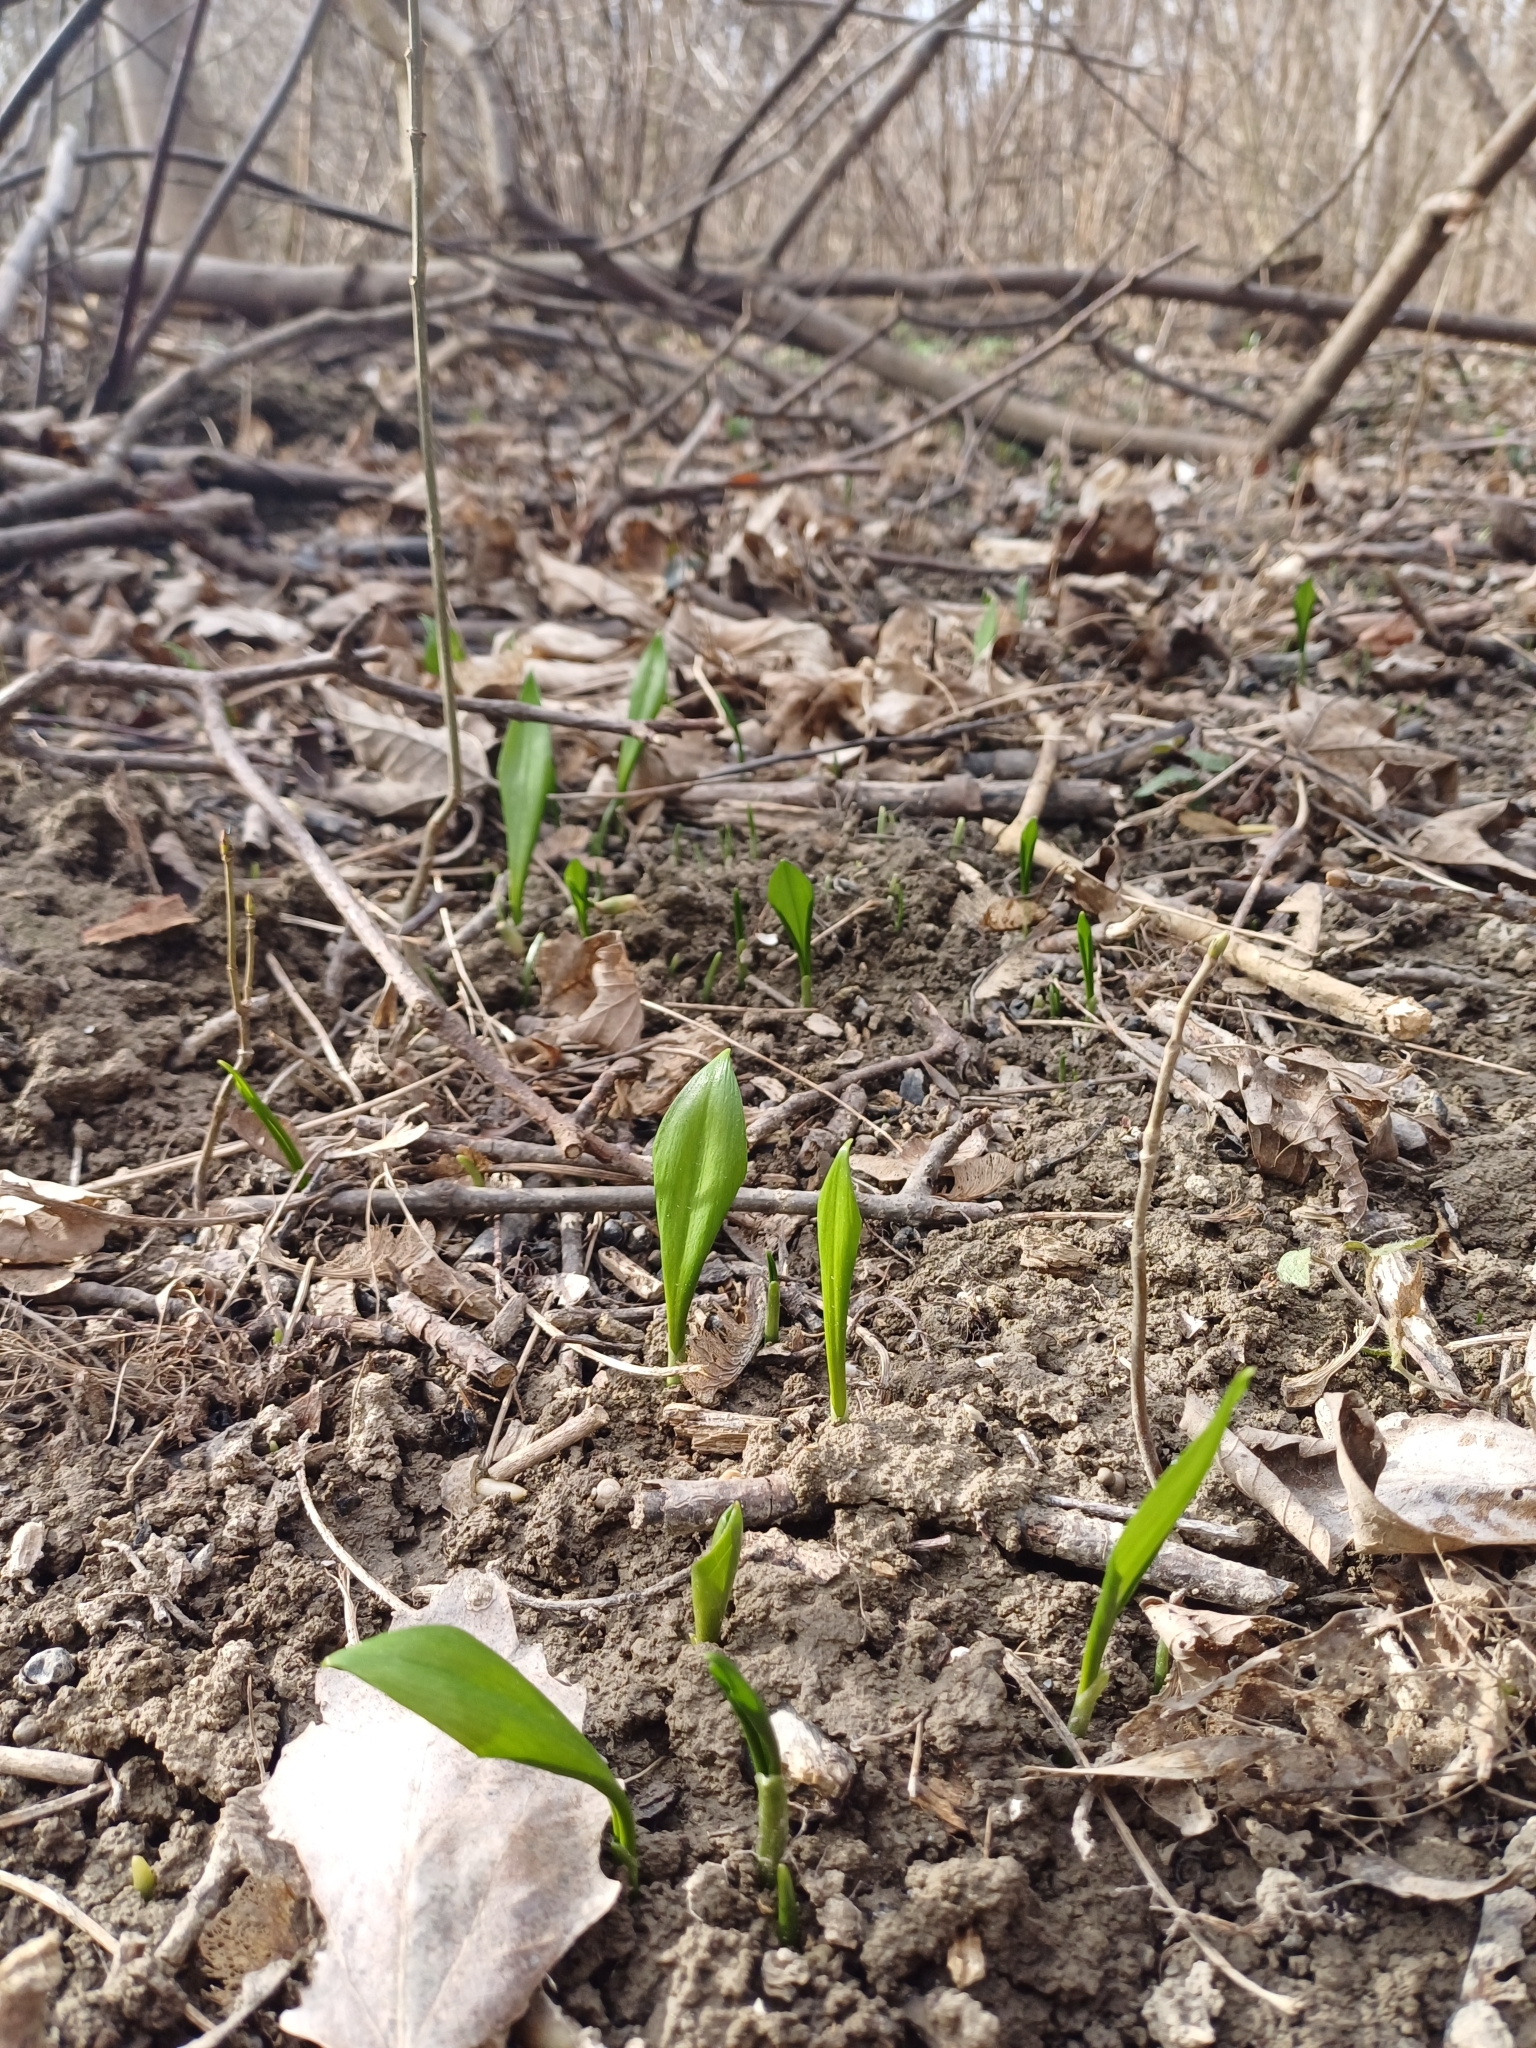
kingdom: Plantae
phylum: Tracheophyta
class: Liliopsida
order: Asparagales
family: Amaryllidaceae
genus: Allium
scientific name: Allium ursinum
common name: Ramsons
